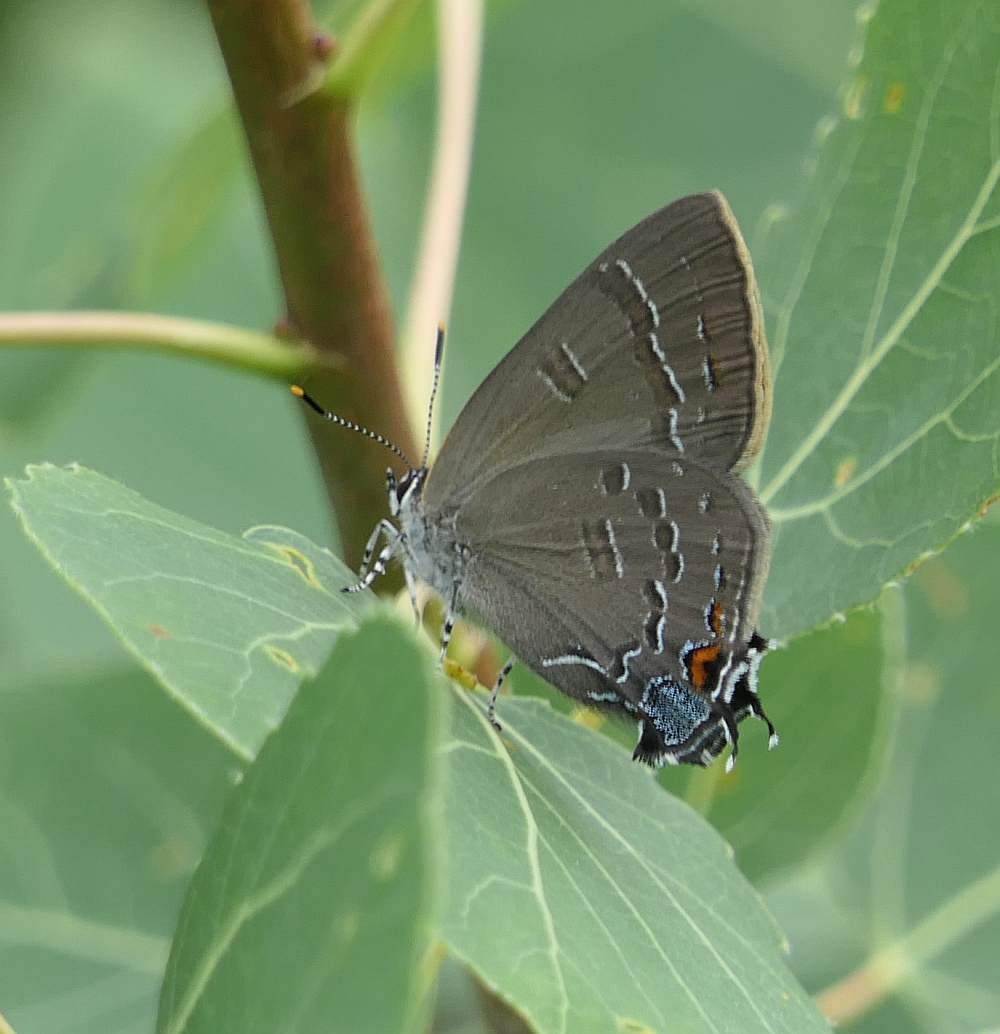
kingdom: Animalia
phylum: Arthropoda
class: Insecta
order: Lepidoptera
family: Lycaenidae
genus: Satyrium
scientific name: Satyrium calanus
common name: Banded hairstreak
